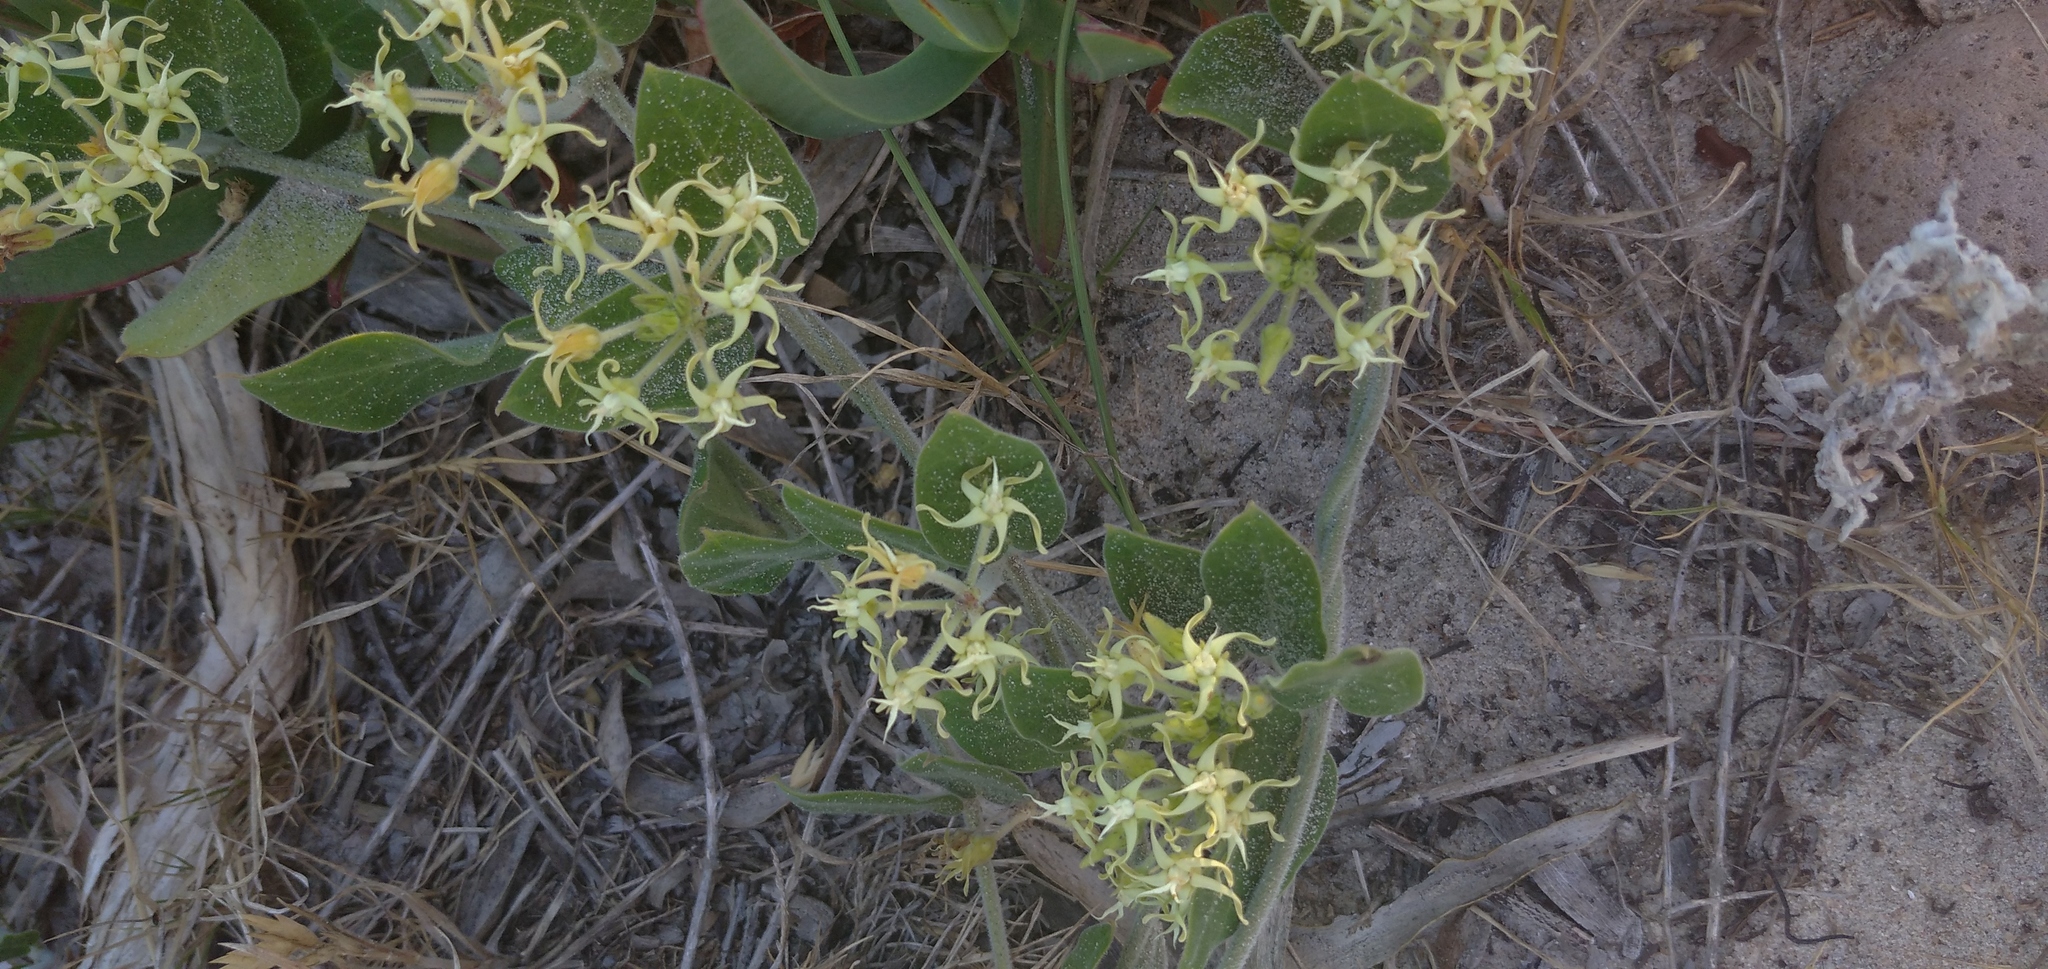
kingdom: Plantae
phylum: Tracheophyta
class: Magnoliopsida
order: Gentianales
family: Apocynaceae
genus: Oxypetalum
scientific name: Oxypetalum tomentosum
